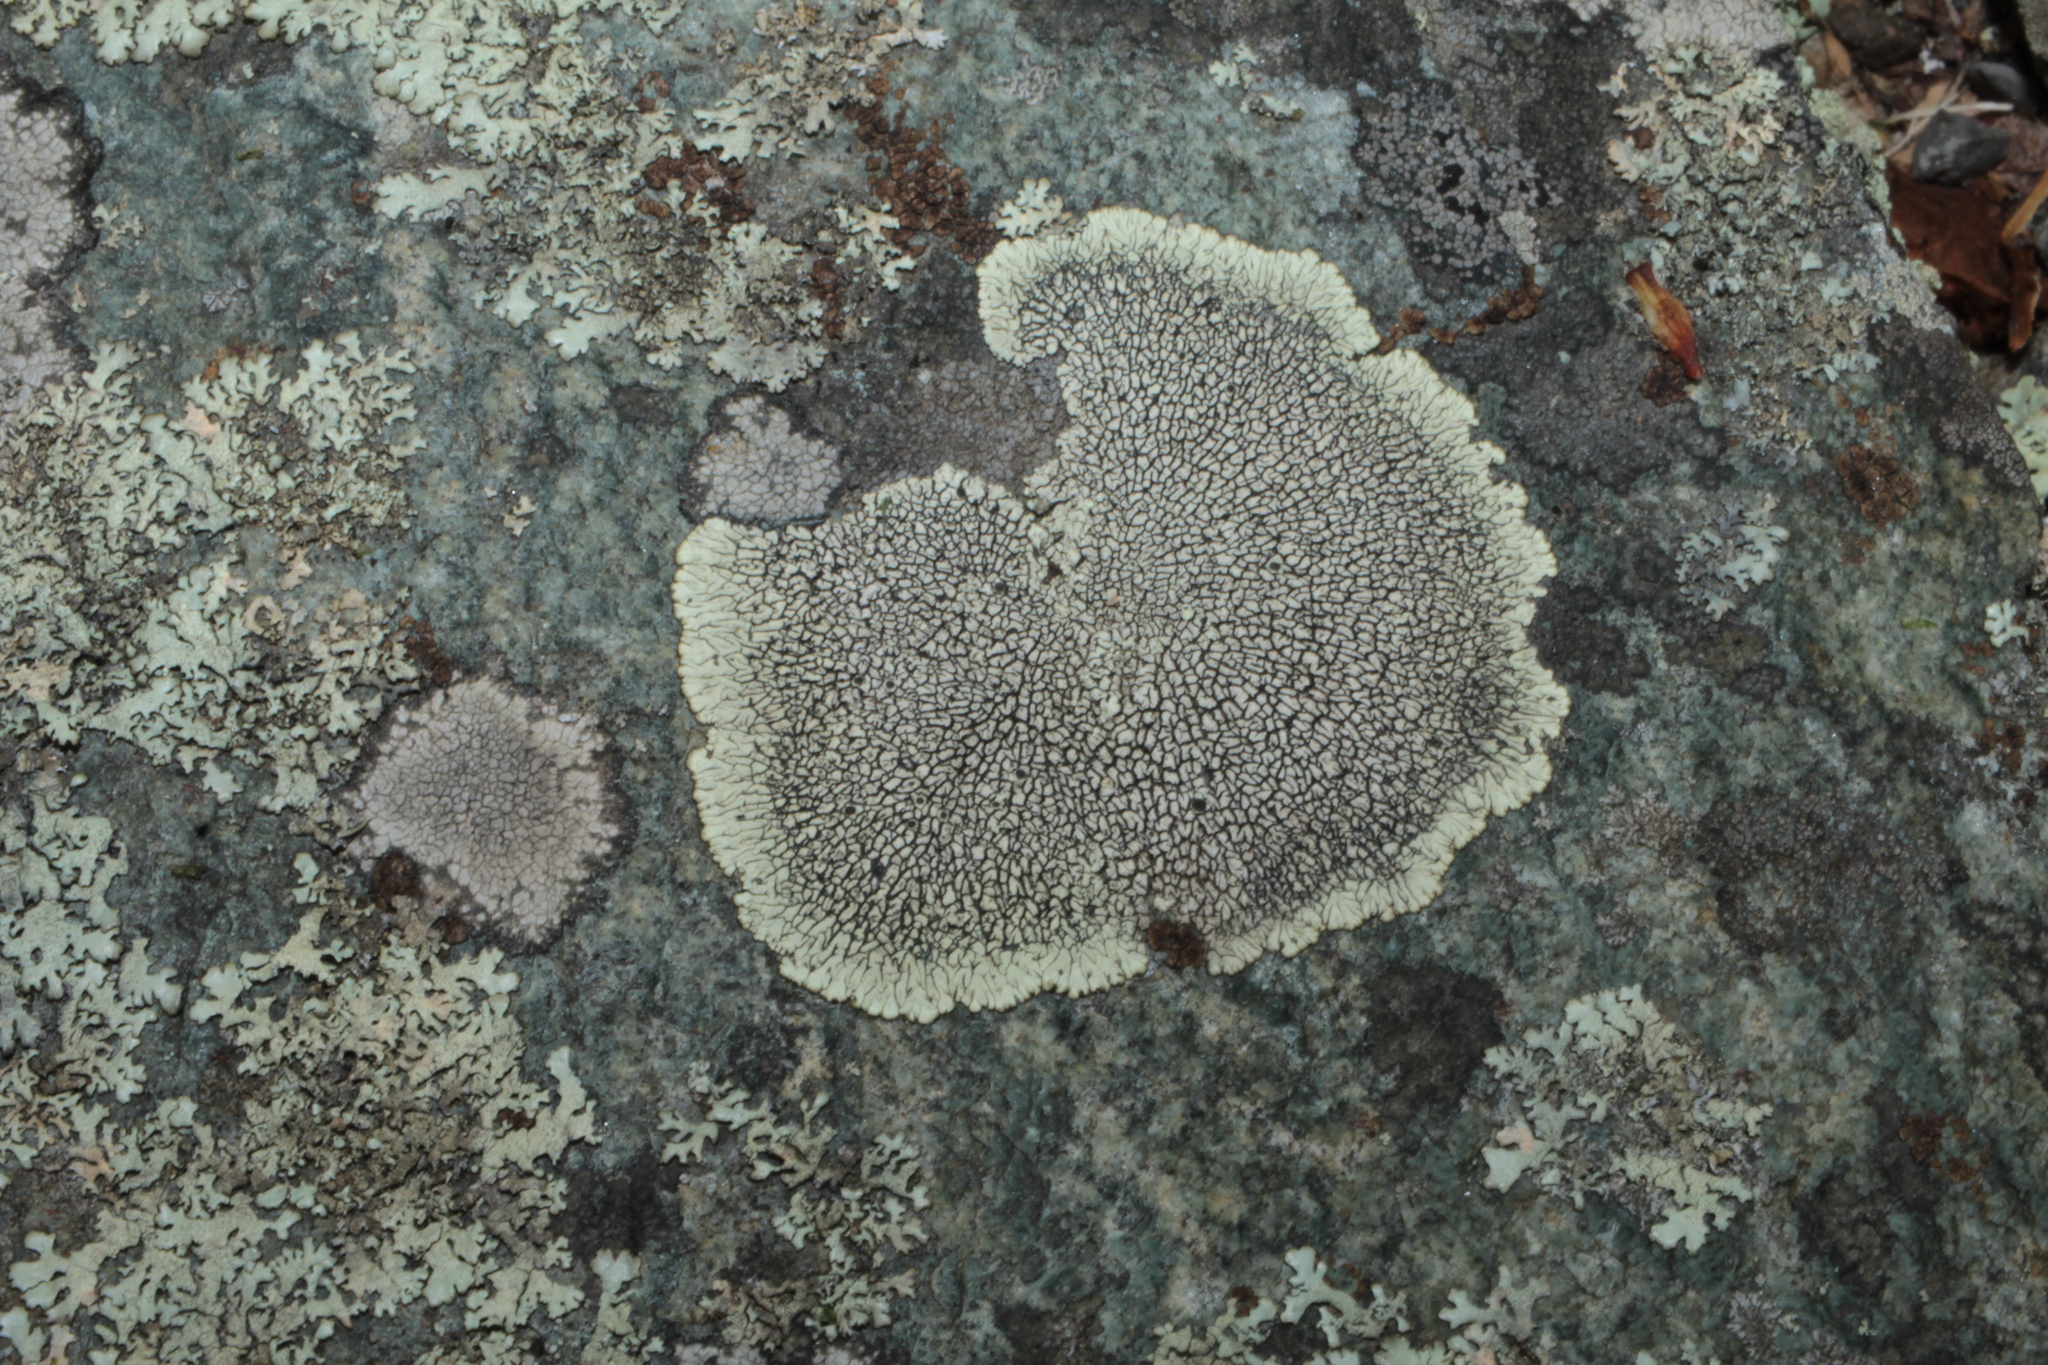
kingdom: Fungi
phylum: Ascomycota
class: Lecanoromycetes
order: Caliciales
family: Caliciaceae
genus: Dimelaena
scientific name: Dimelaena oreina
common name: Golden moonglow lichen
